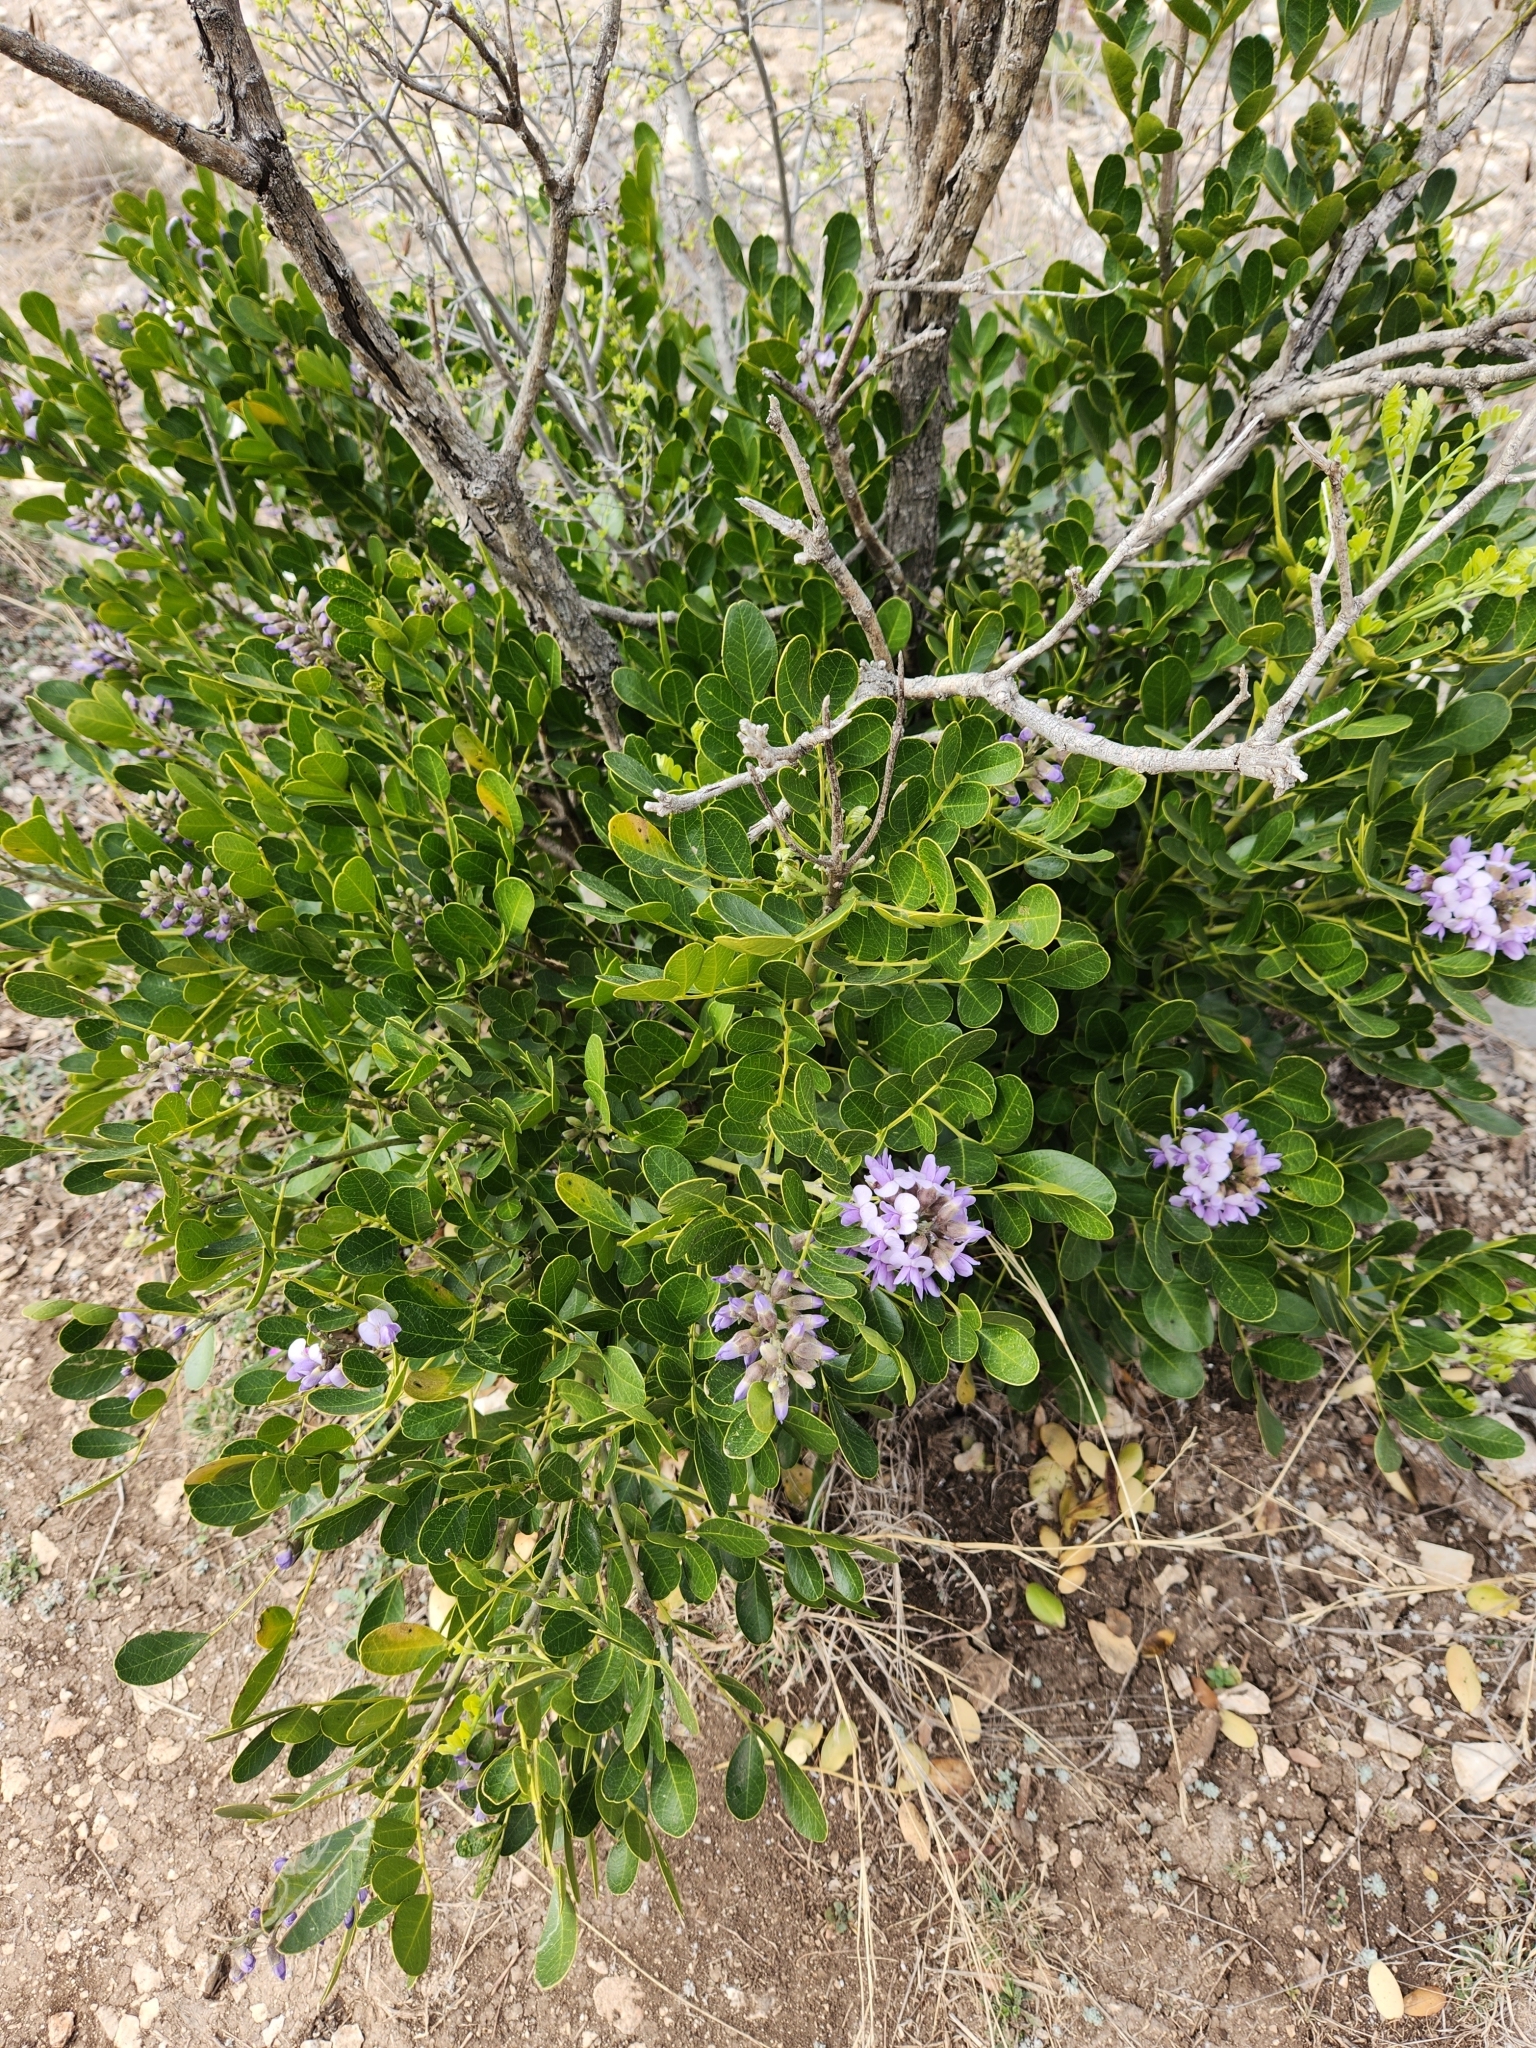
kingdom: Plantae
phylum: Tracheophyta
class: Magnoliopsida
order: Fabales
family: Fabaceae
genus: Dermatophyllum
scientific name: Dermatophyllum secundiflorum
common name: Texas-mountain-laurel
